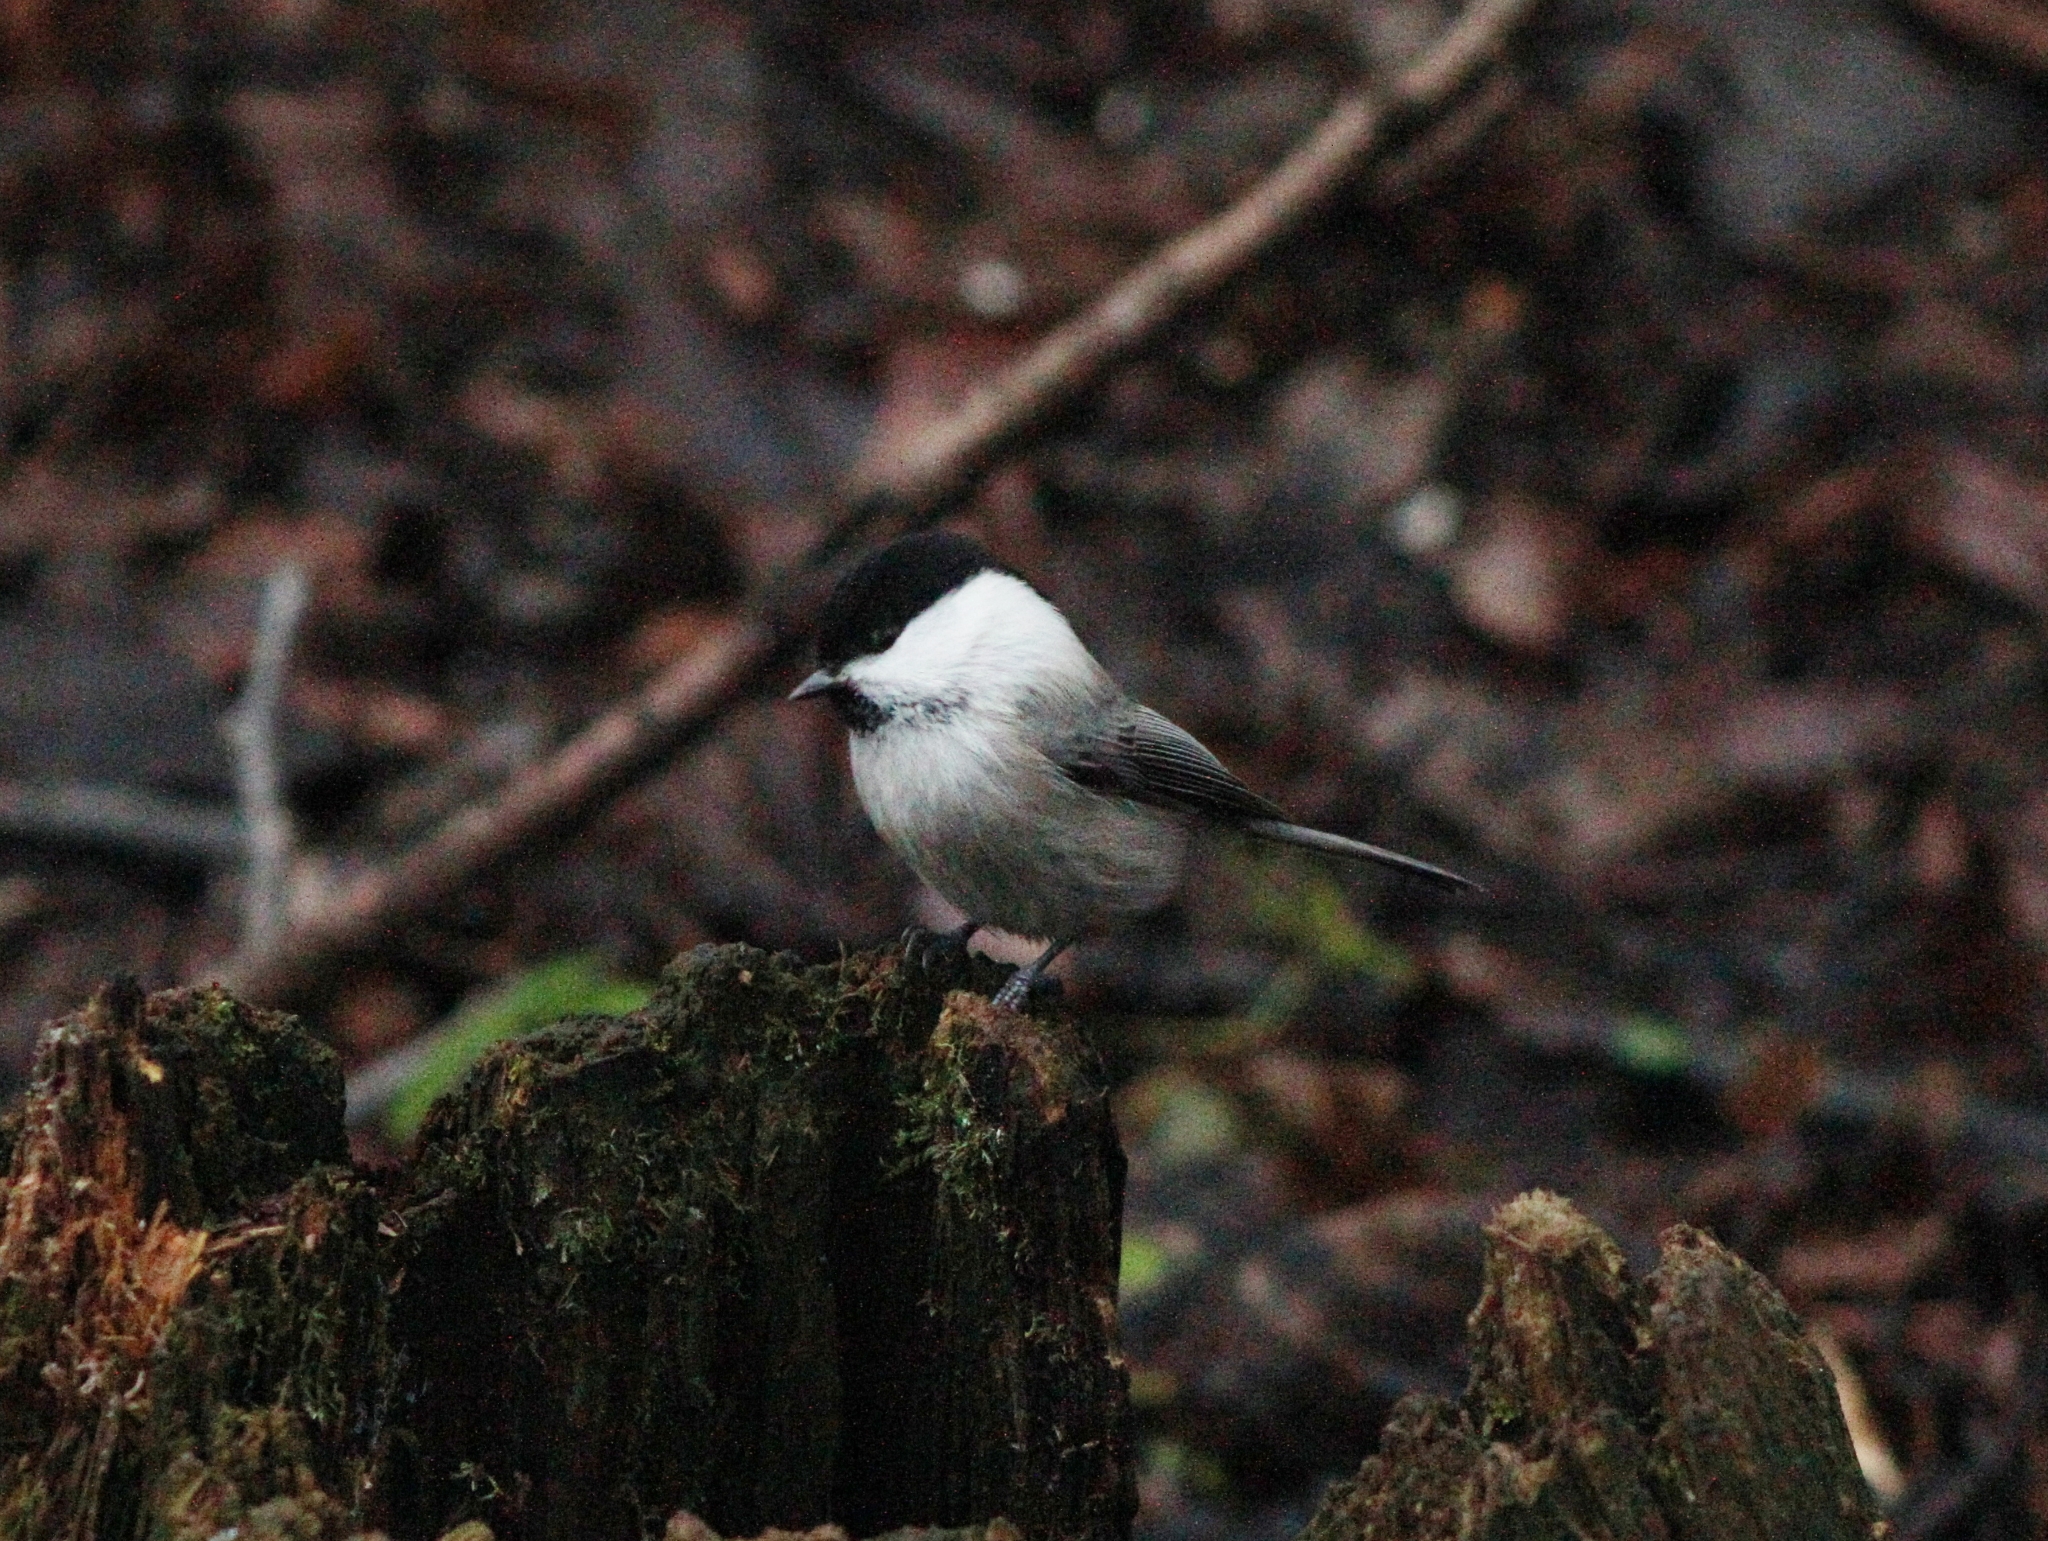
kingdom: Animalia
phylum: Chordata
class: Aves
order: Passeriformes
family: Paridae
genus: Poecile
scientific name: Poecile montanus
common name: Willow tit
